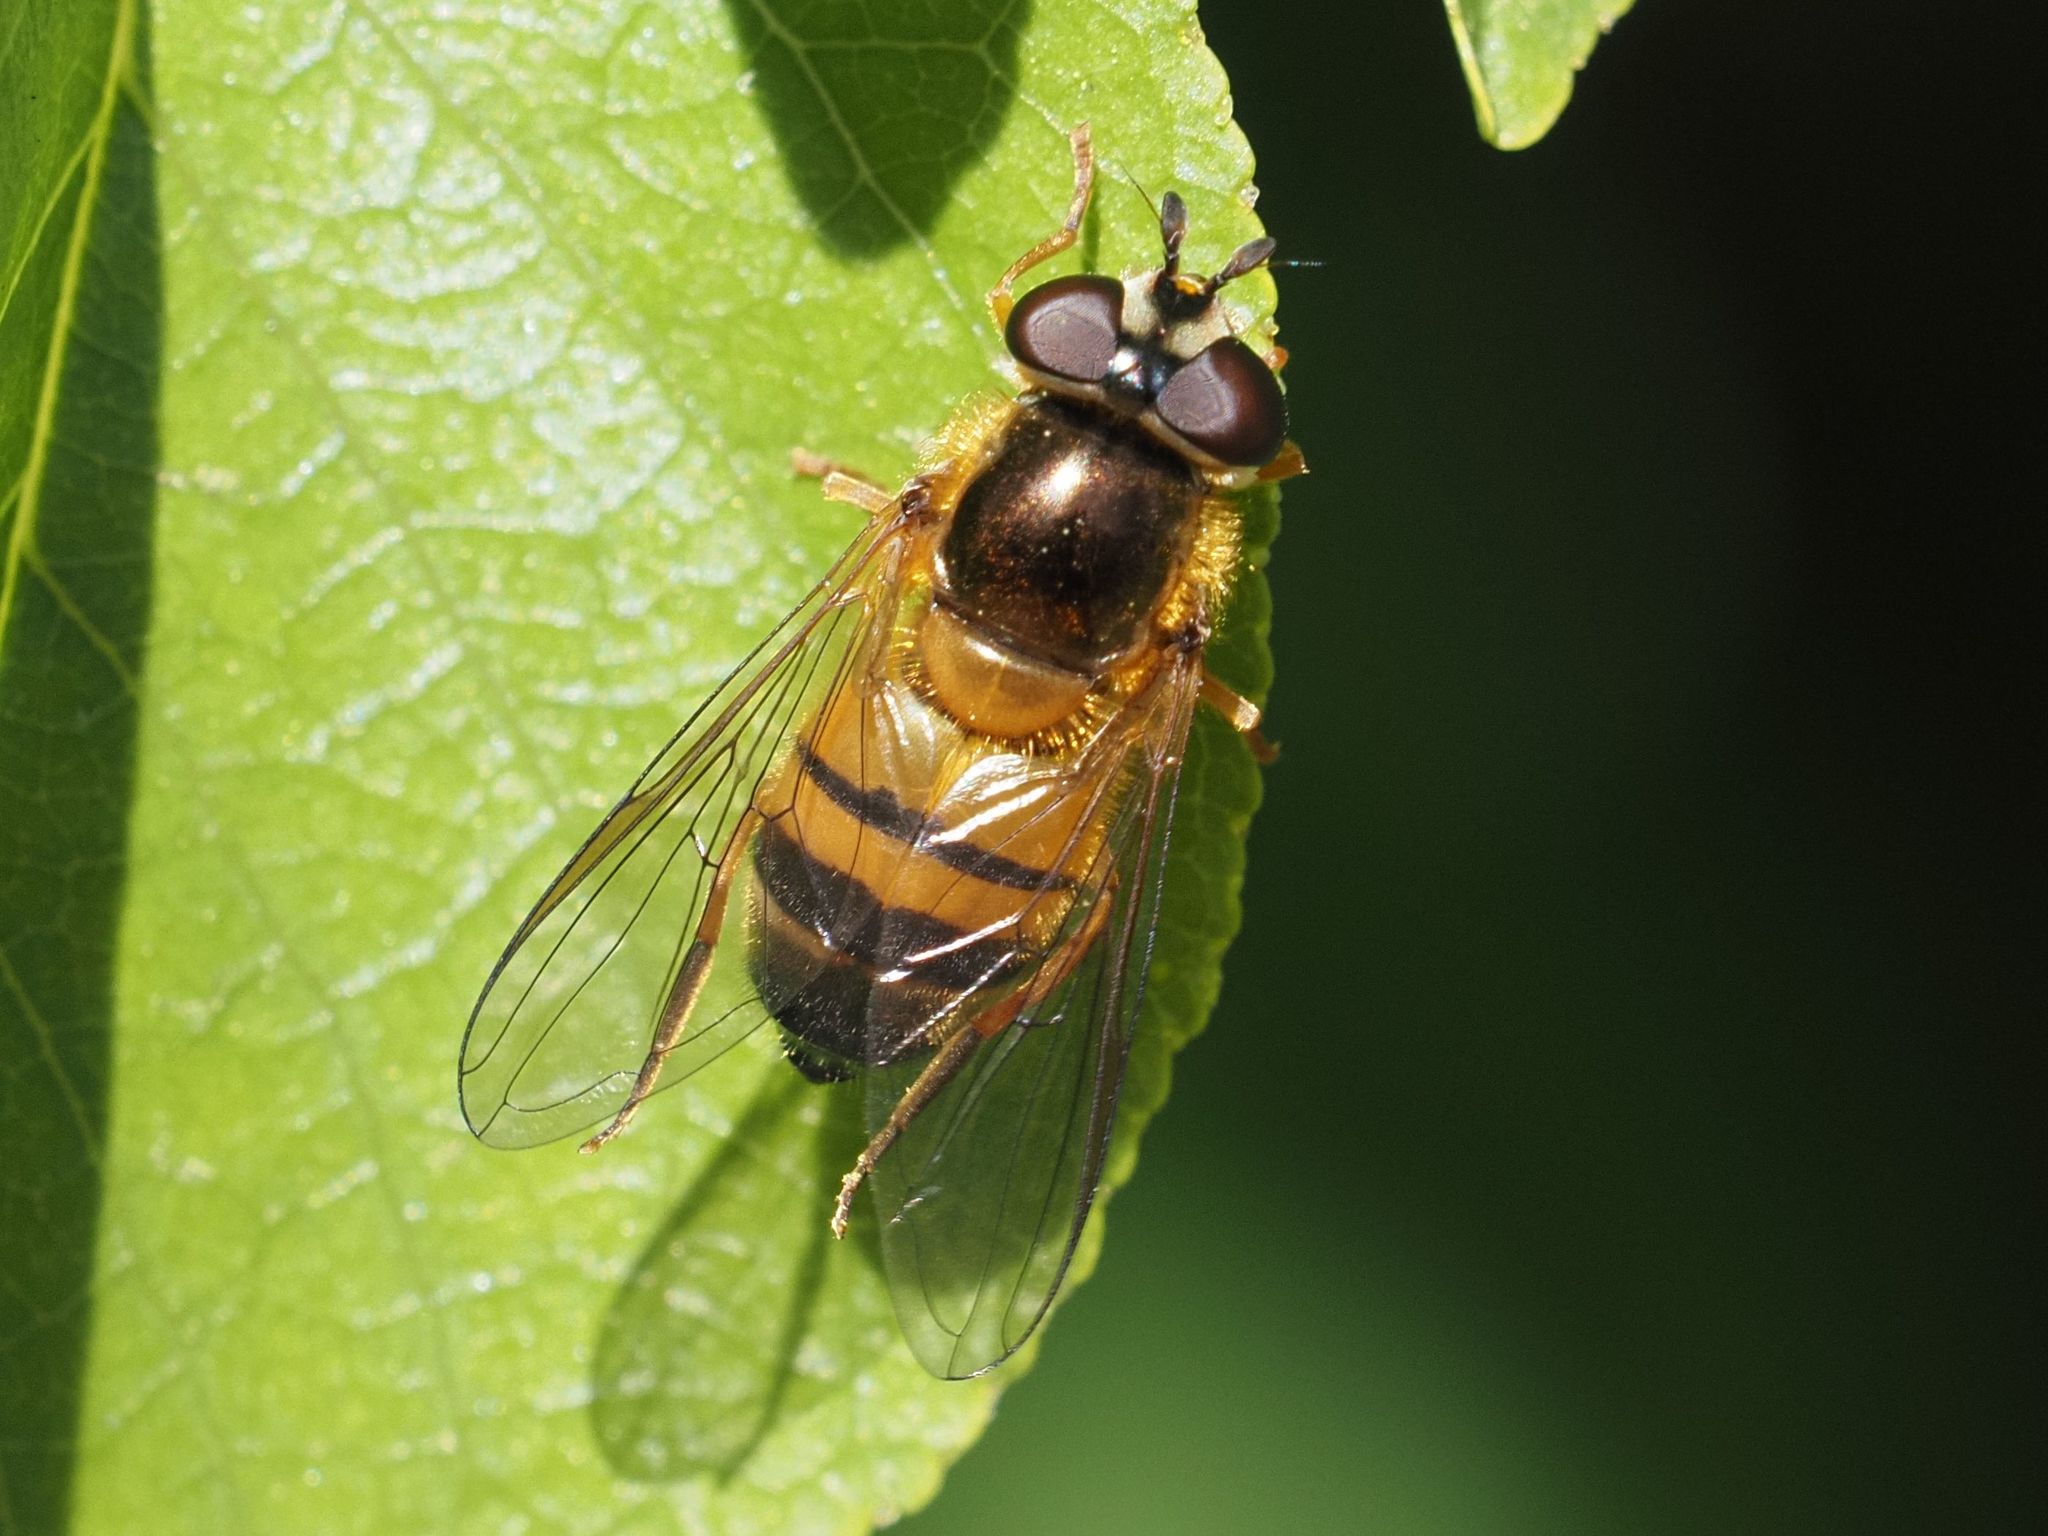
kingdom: Animalia
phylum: Arthropoda
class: Insecta
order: Diptera
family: Syrphidae
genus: Epistrophe
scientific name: Epistrophe eligans
